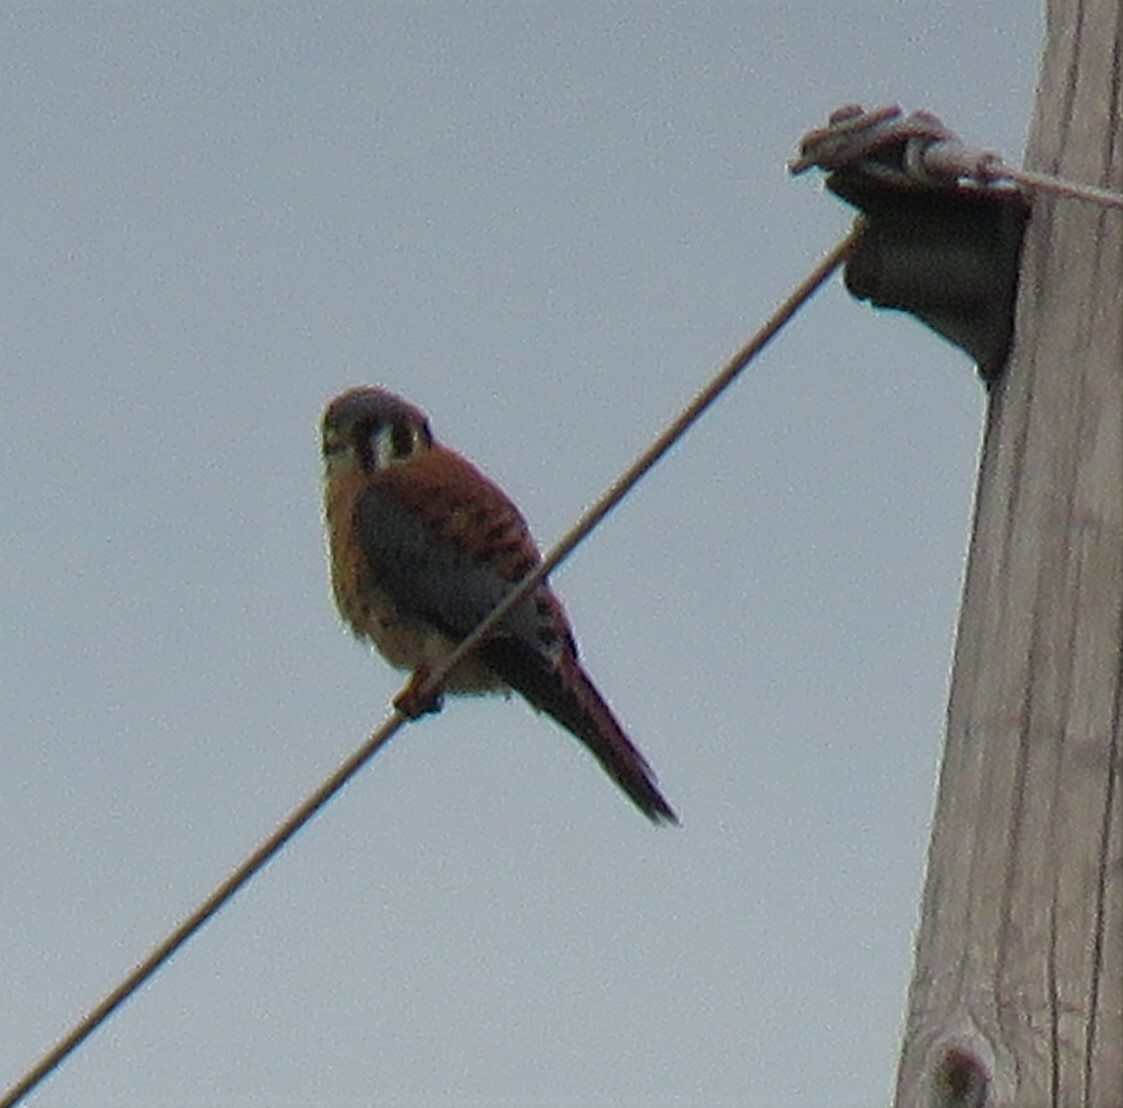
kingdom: Animalia
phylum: Chordata
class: Aves
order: Falconiformes
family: Falconidae
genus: Falco
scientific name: Falco sparverius
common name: American kestrel
